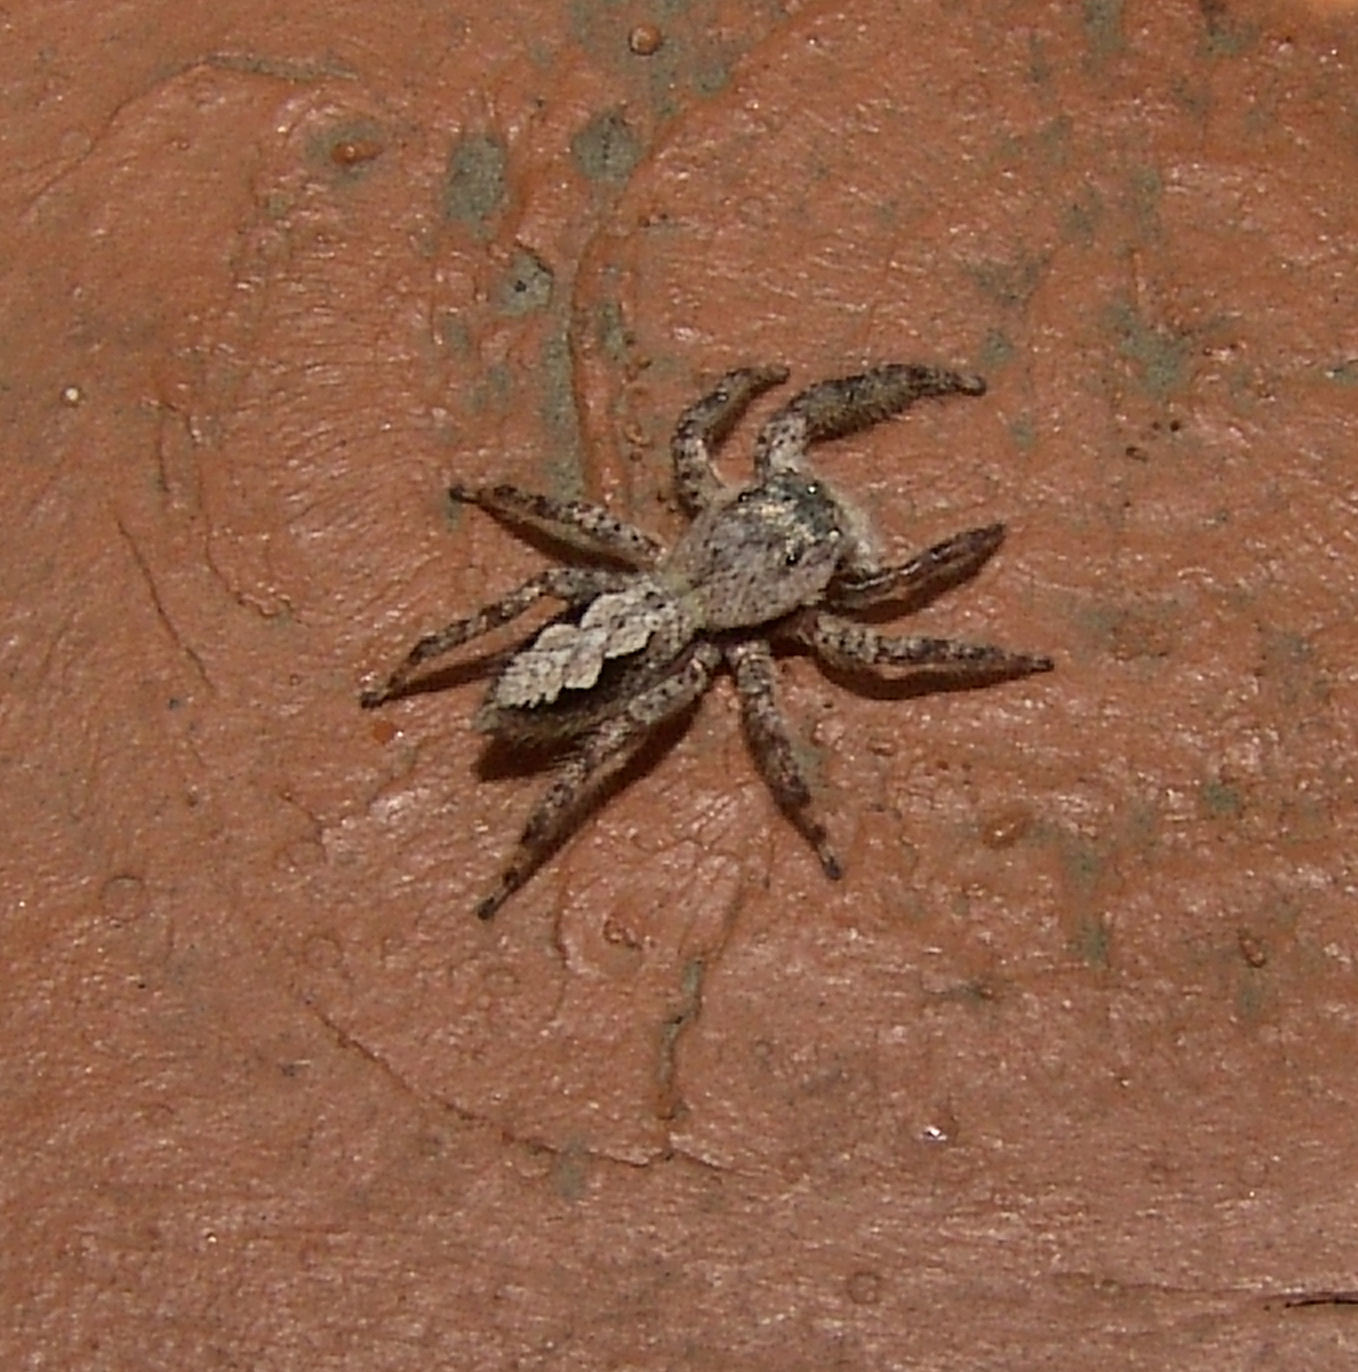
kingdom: Animalia
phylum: Arthropoda
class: Arachnida
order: Araneae
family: Salticidae
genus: Platycryptus
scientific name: Platycryptus undatus
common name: Tan jumping spider
